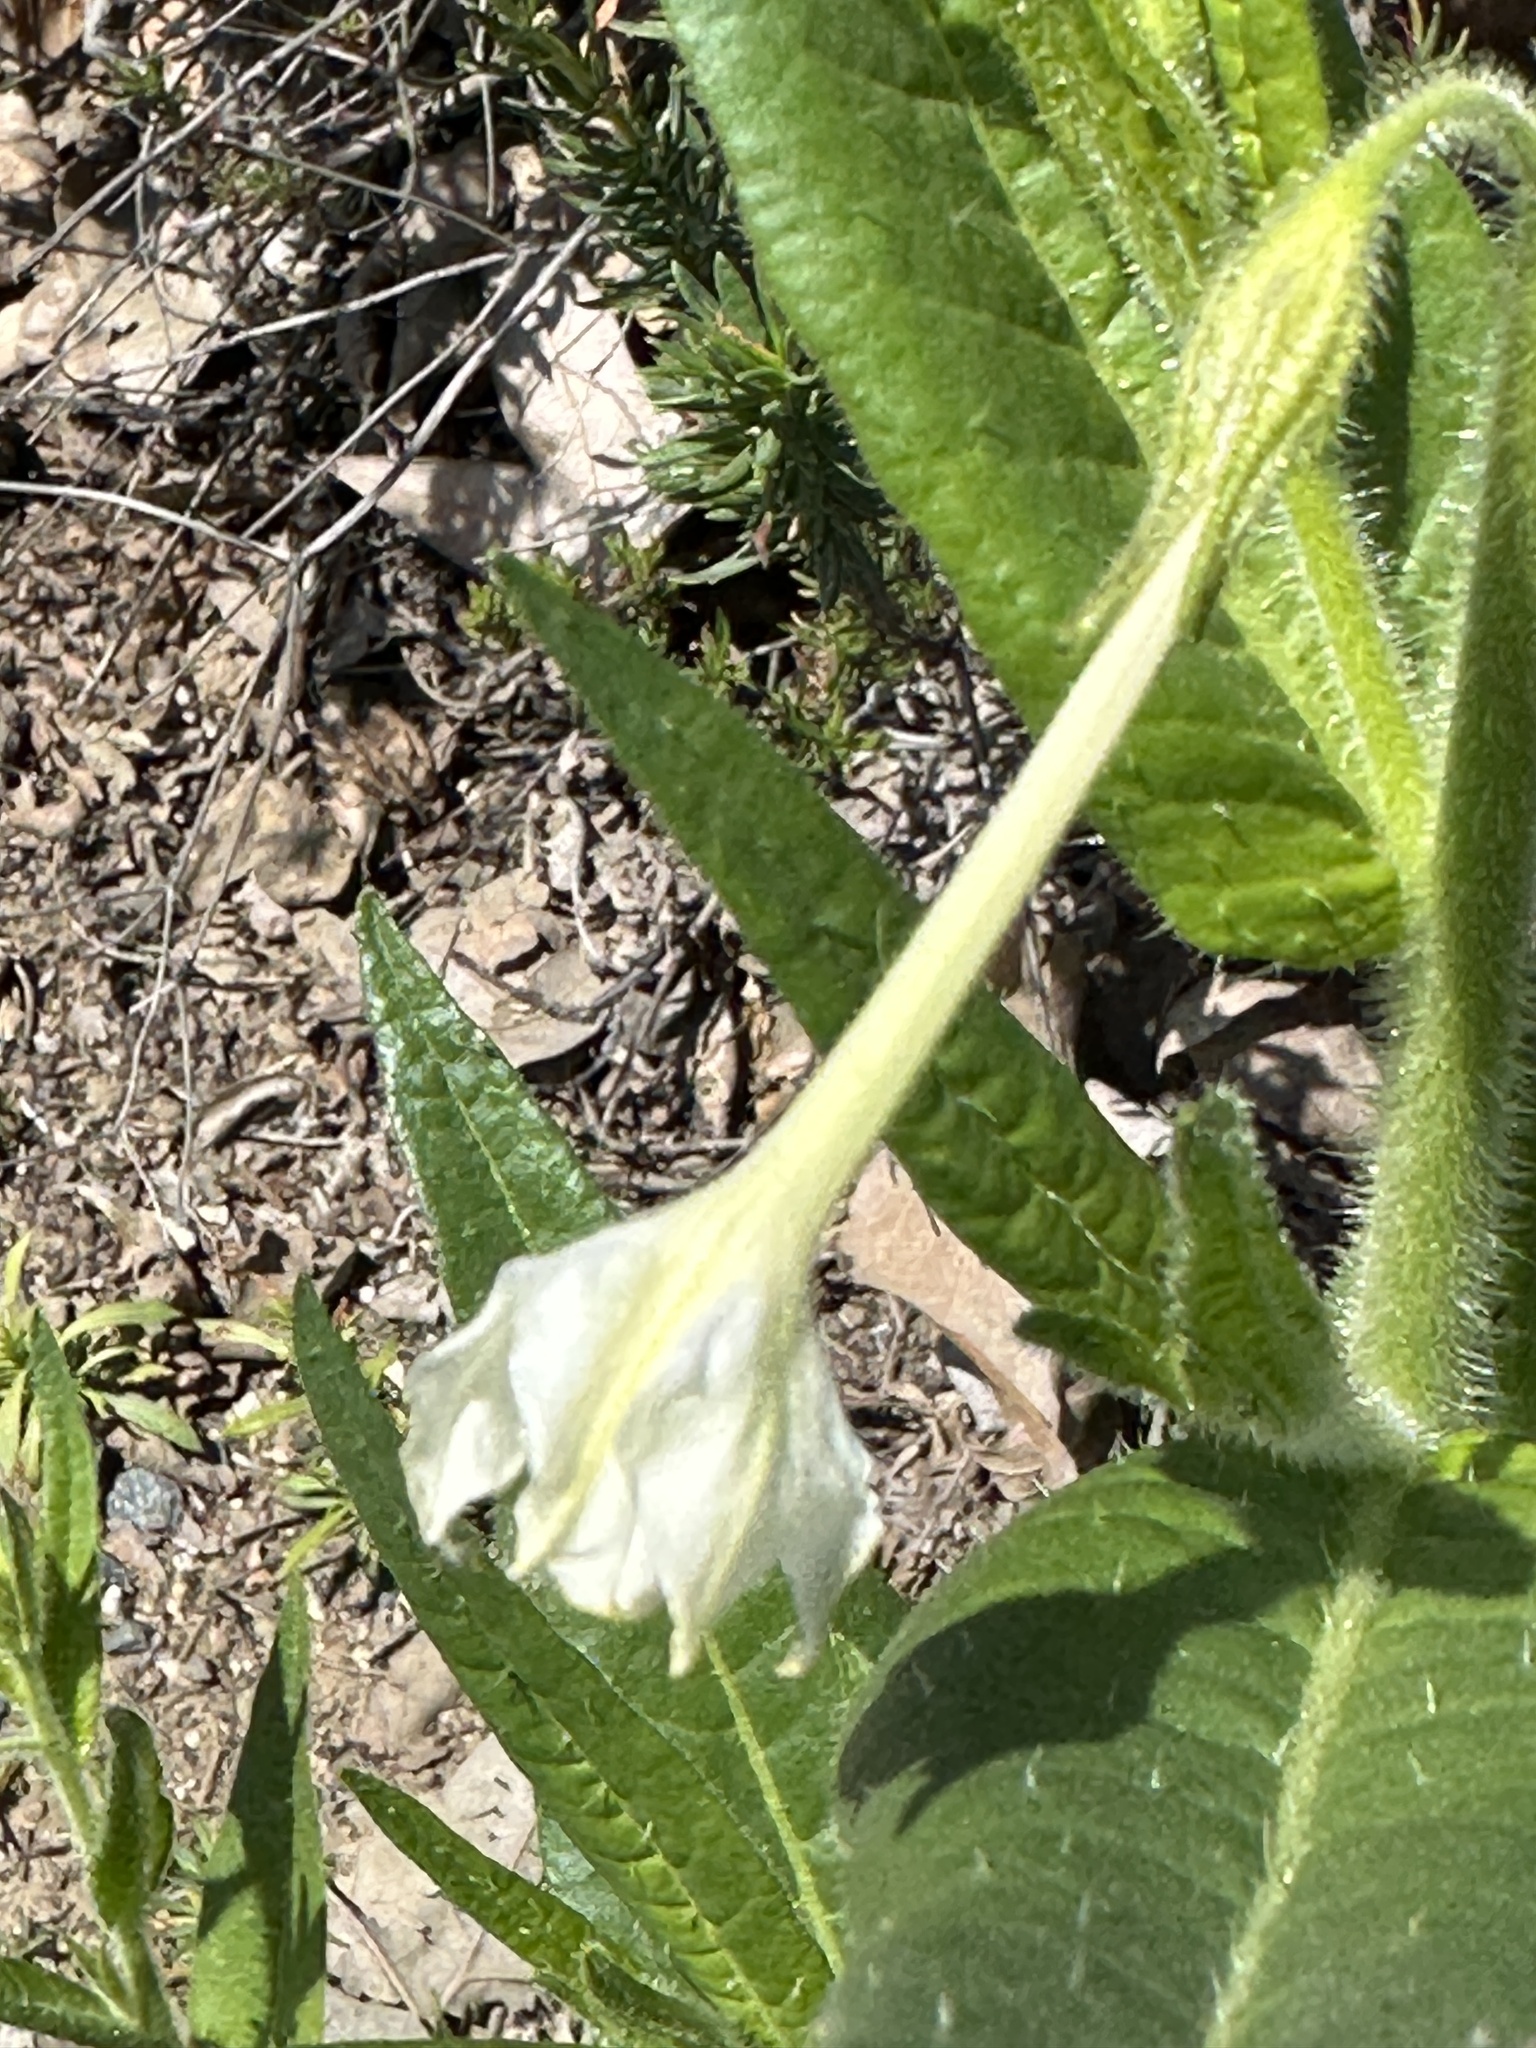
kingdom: Plantae
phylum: Tracheophyta
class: Magnoliopsida
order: Solanales
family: Solanaceae
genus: Nicotiana
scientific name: Nicotiana quadrivalvis
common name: Indian tobacco
